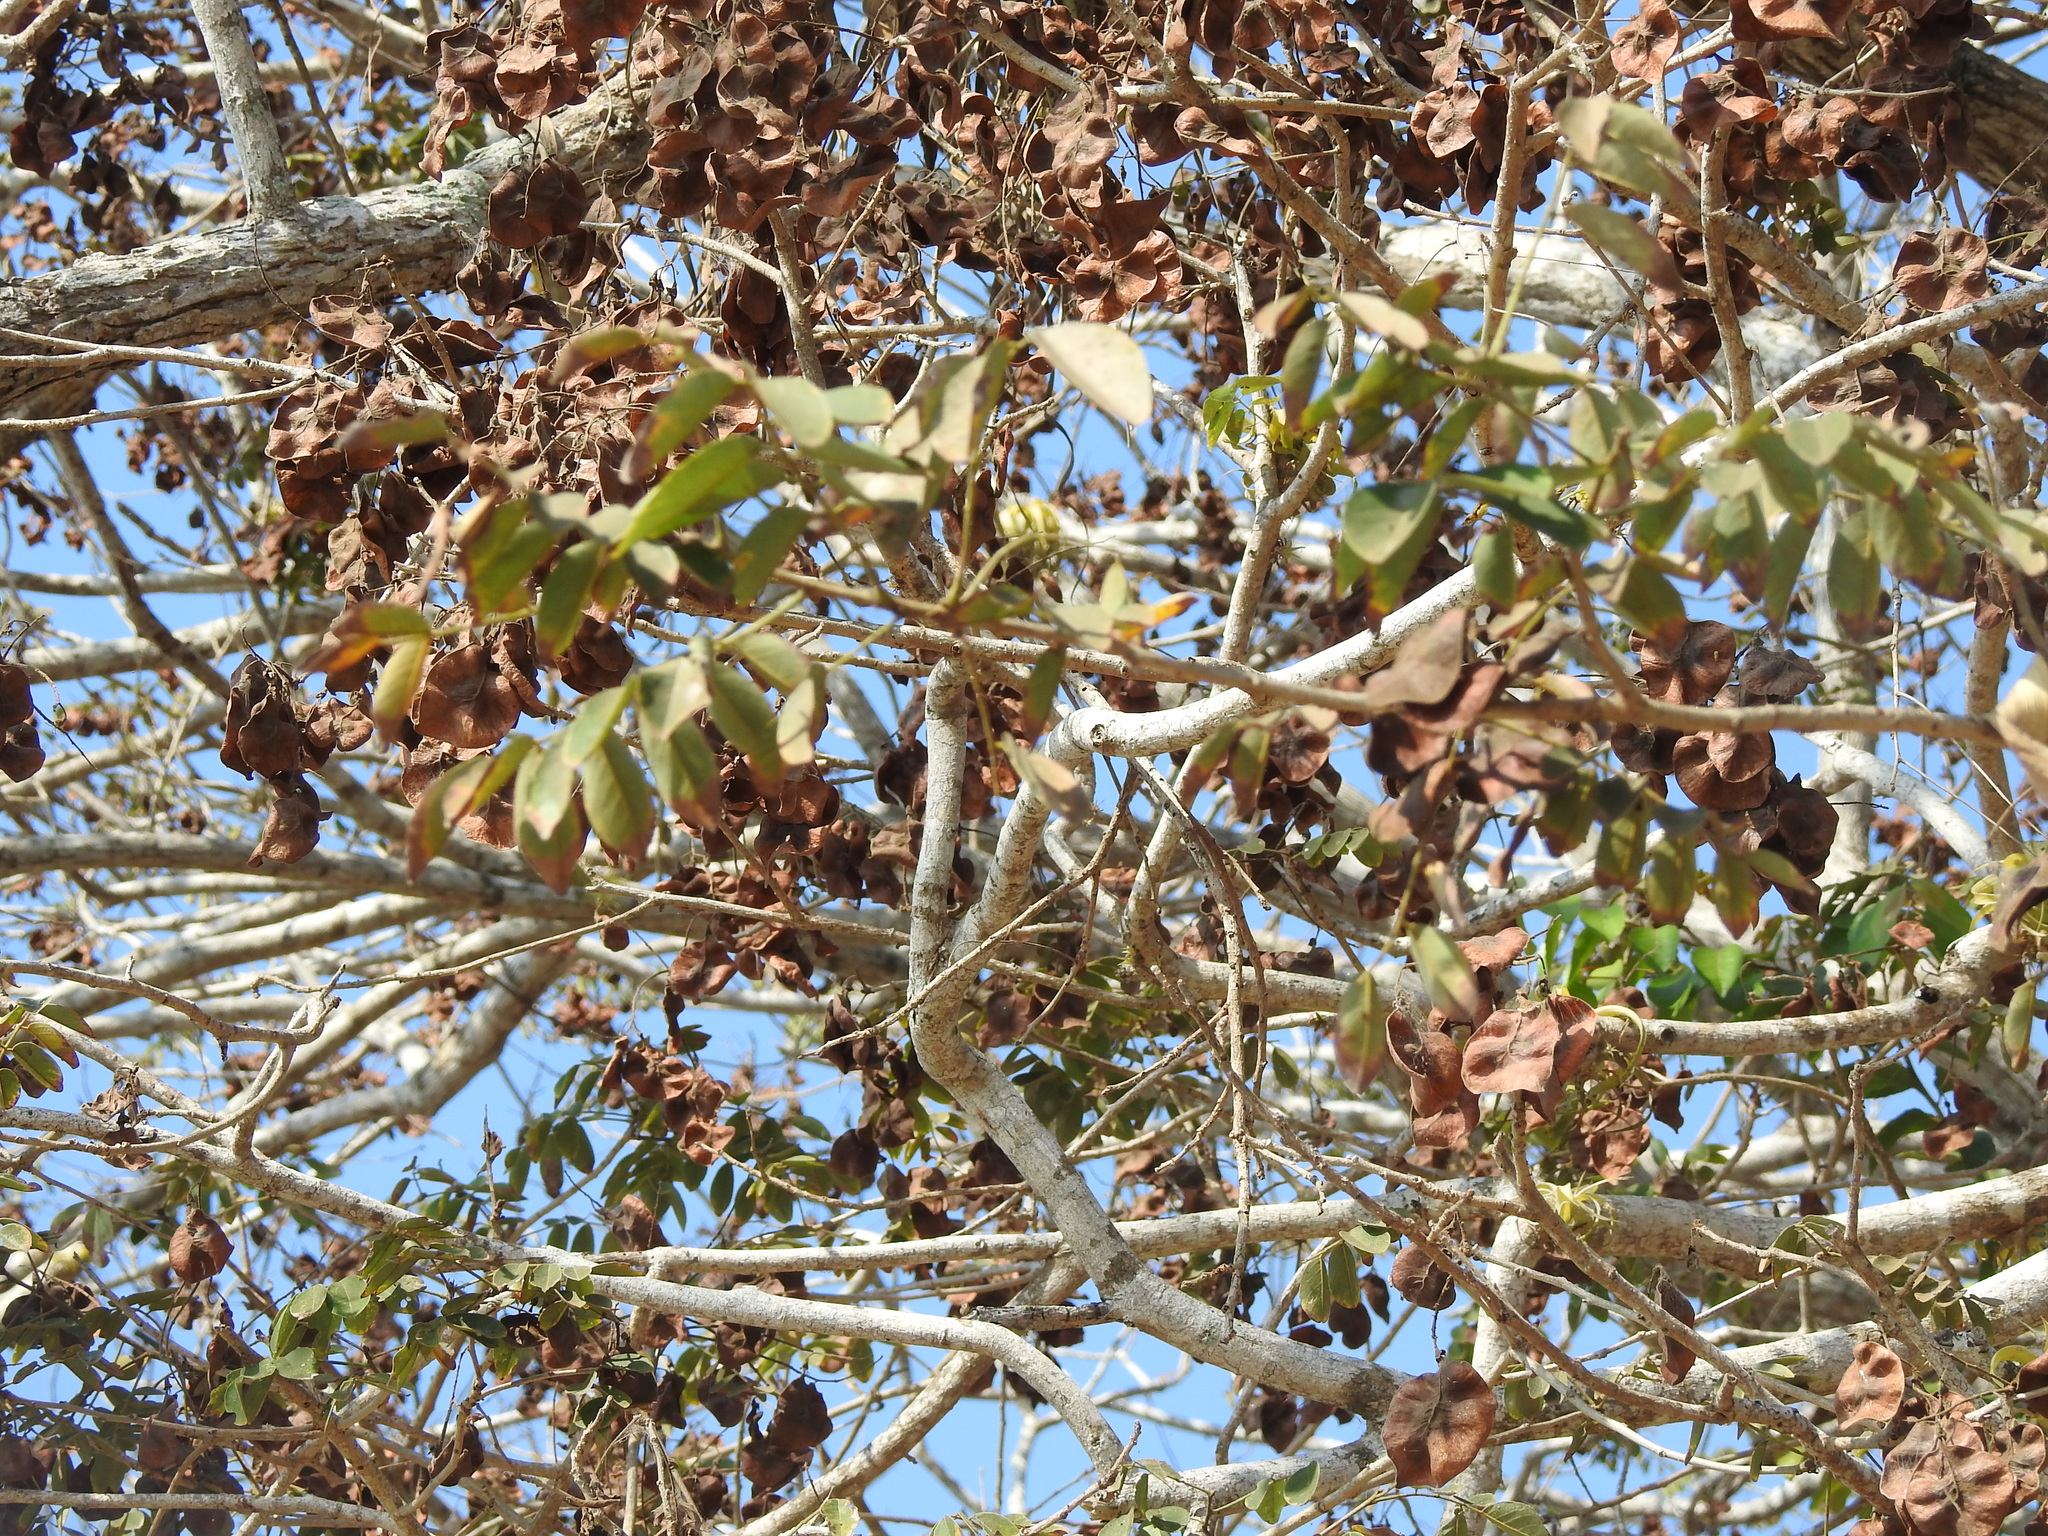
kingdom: Plantae
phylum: Tracheophyta
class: Magnoliopsida
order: Fabales
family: Fabaceae
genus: Pterocarpus
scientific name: Pterocarpus acapulcensis
